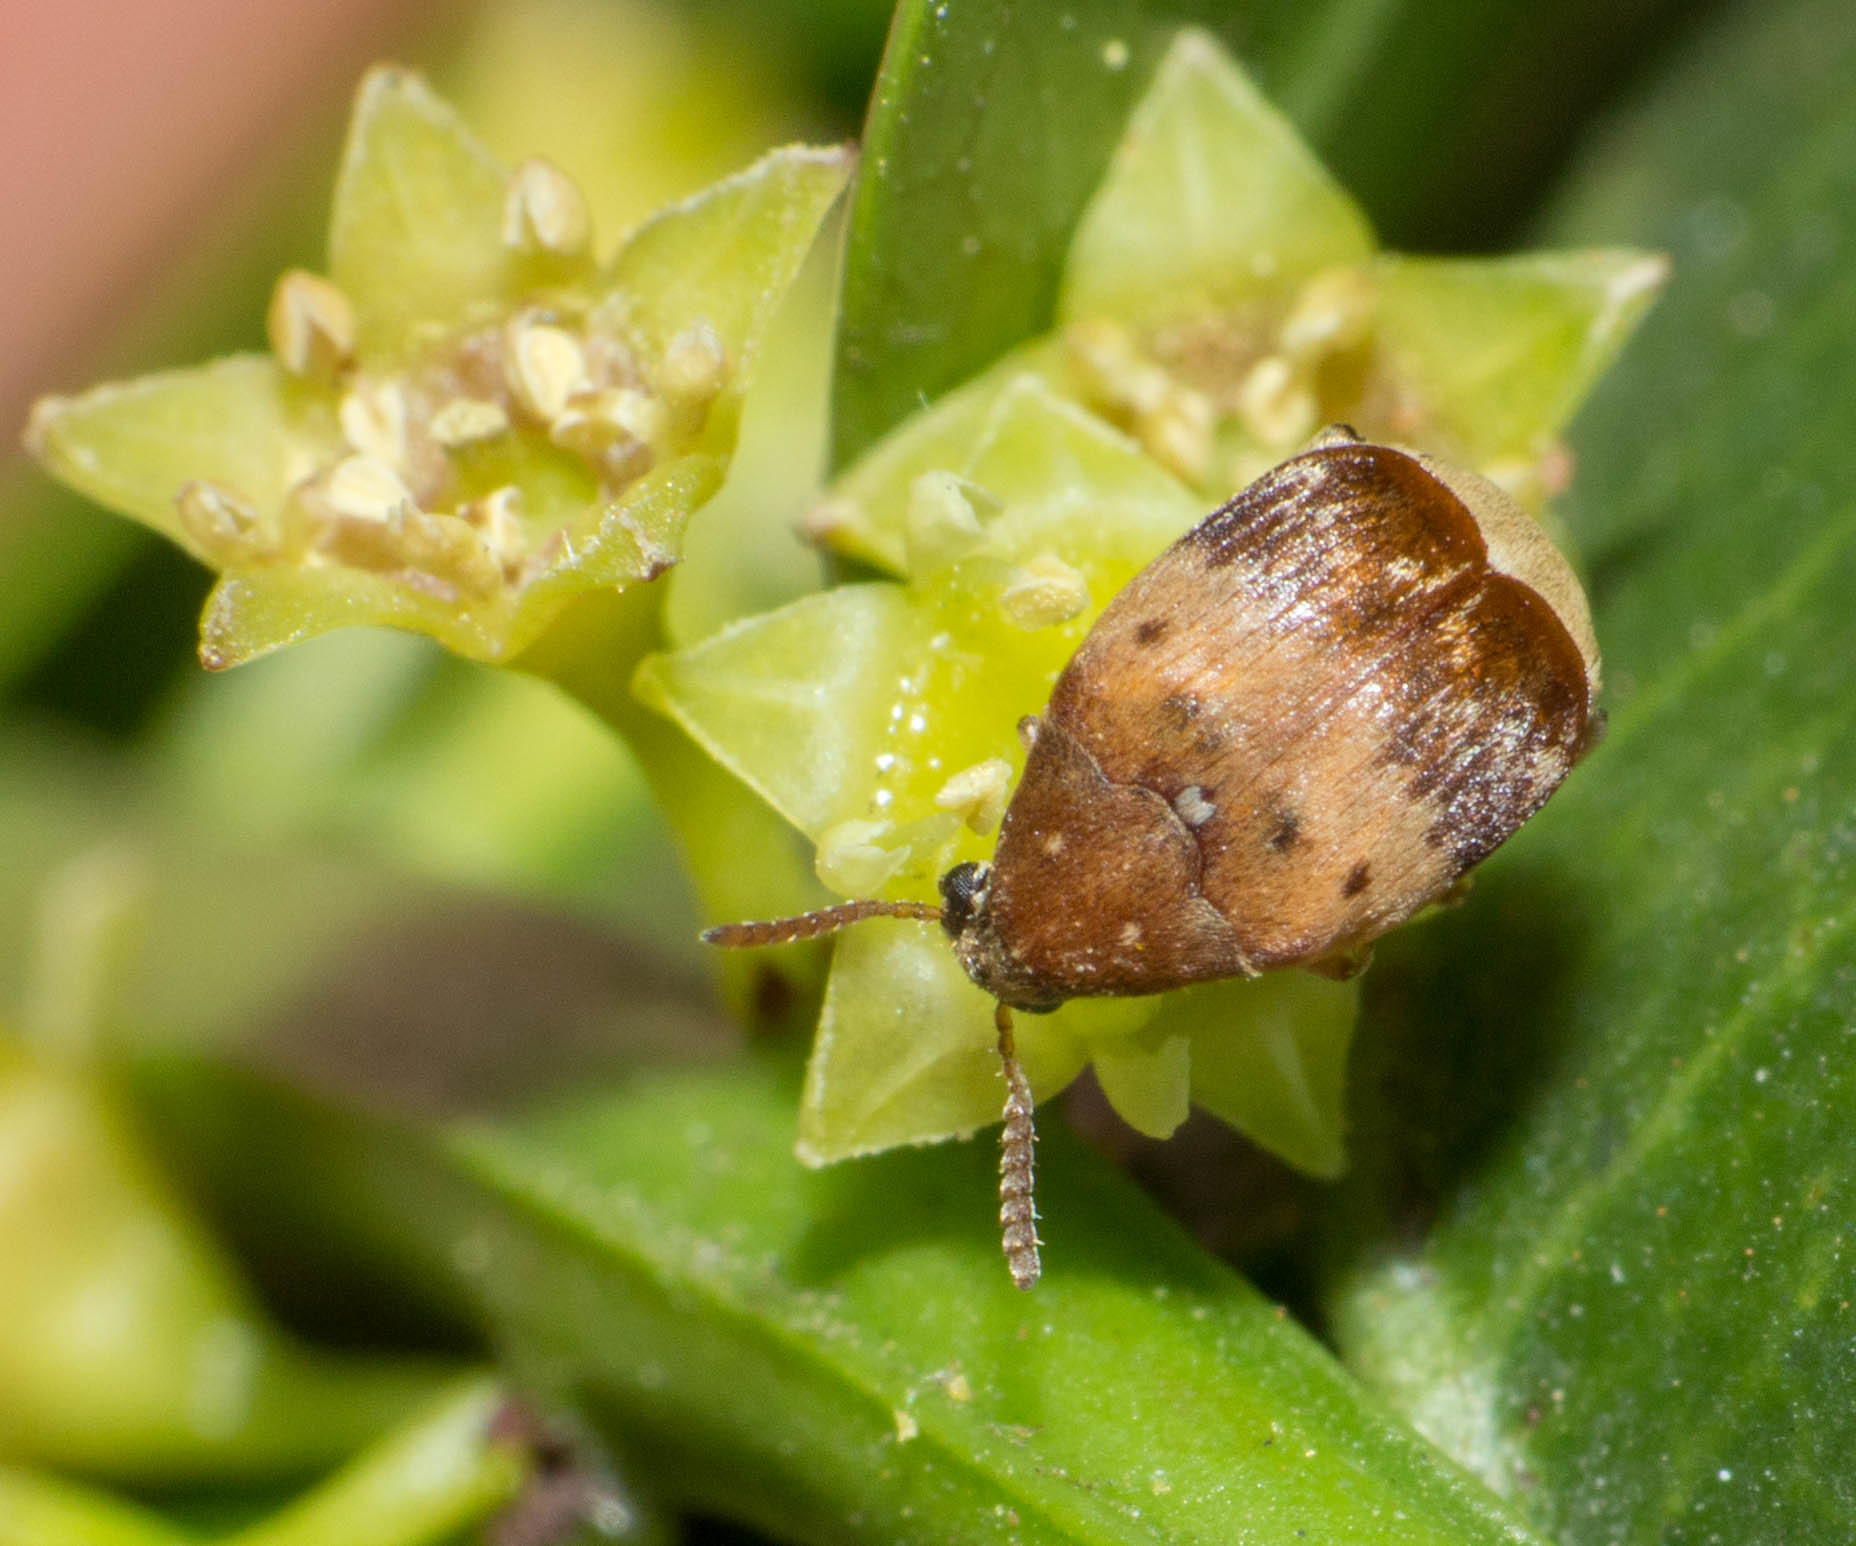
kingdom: Animalia
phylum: Arthropoda
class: Insecta
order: Coleoptera
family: Chrysomelidae
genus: Sennius
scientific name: Sennius
